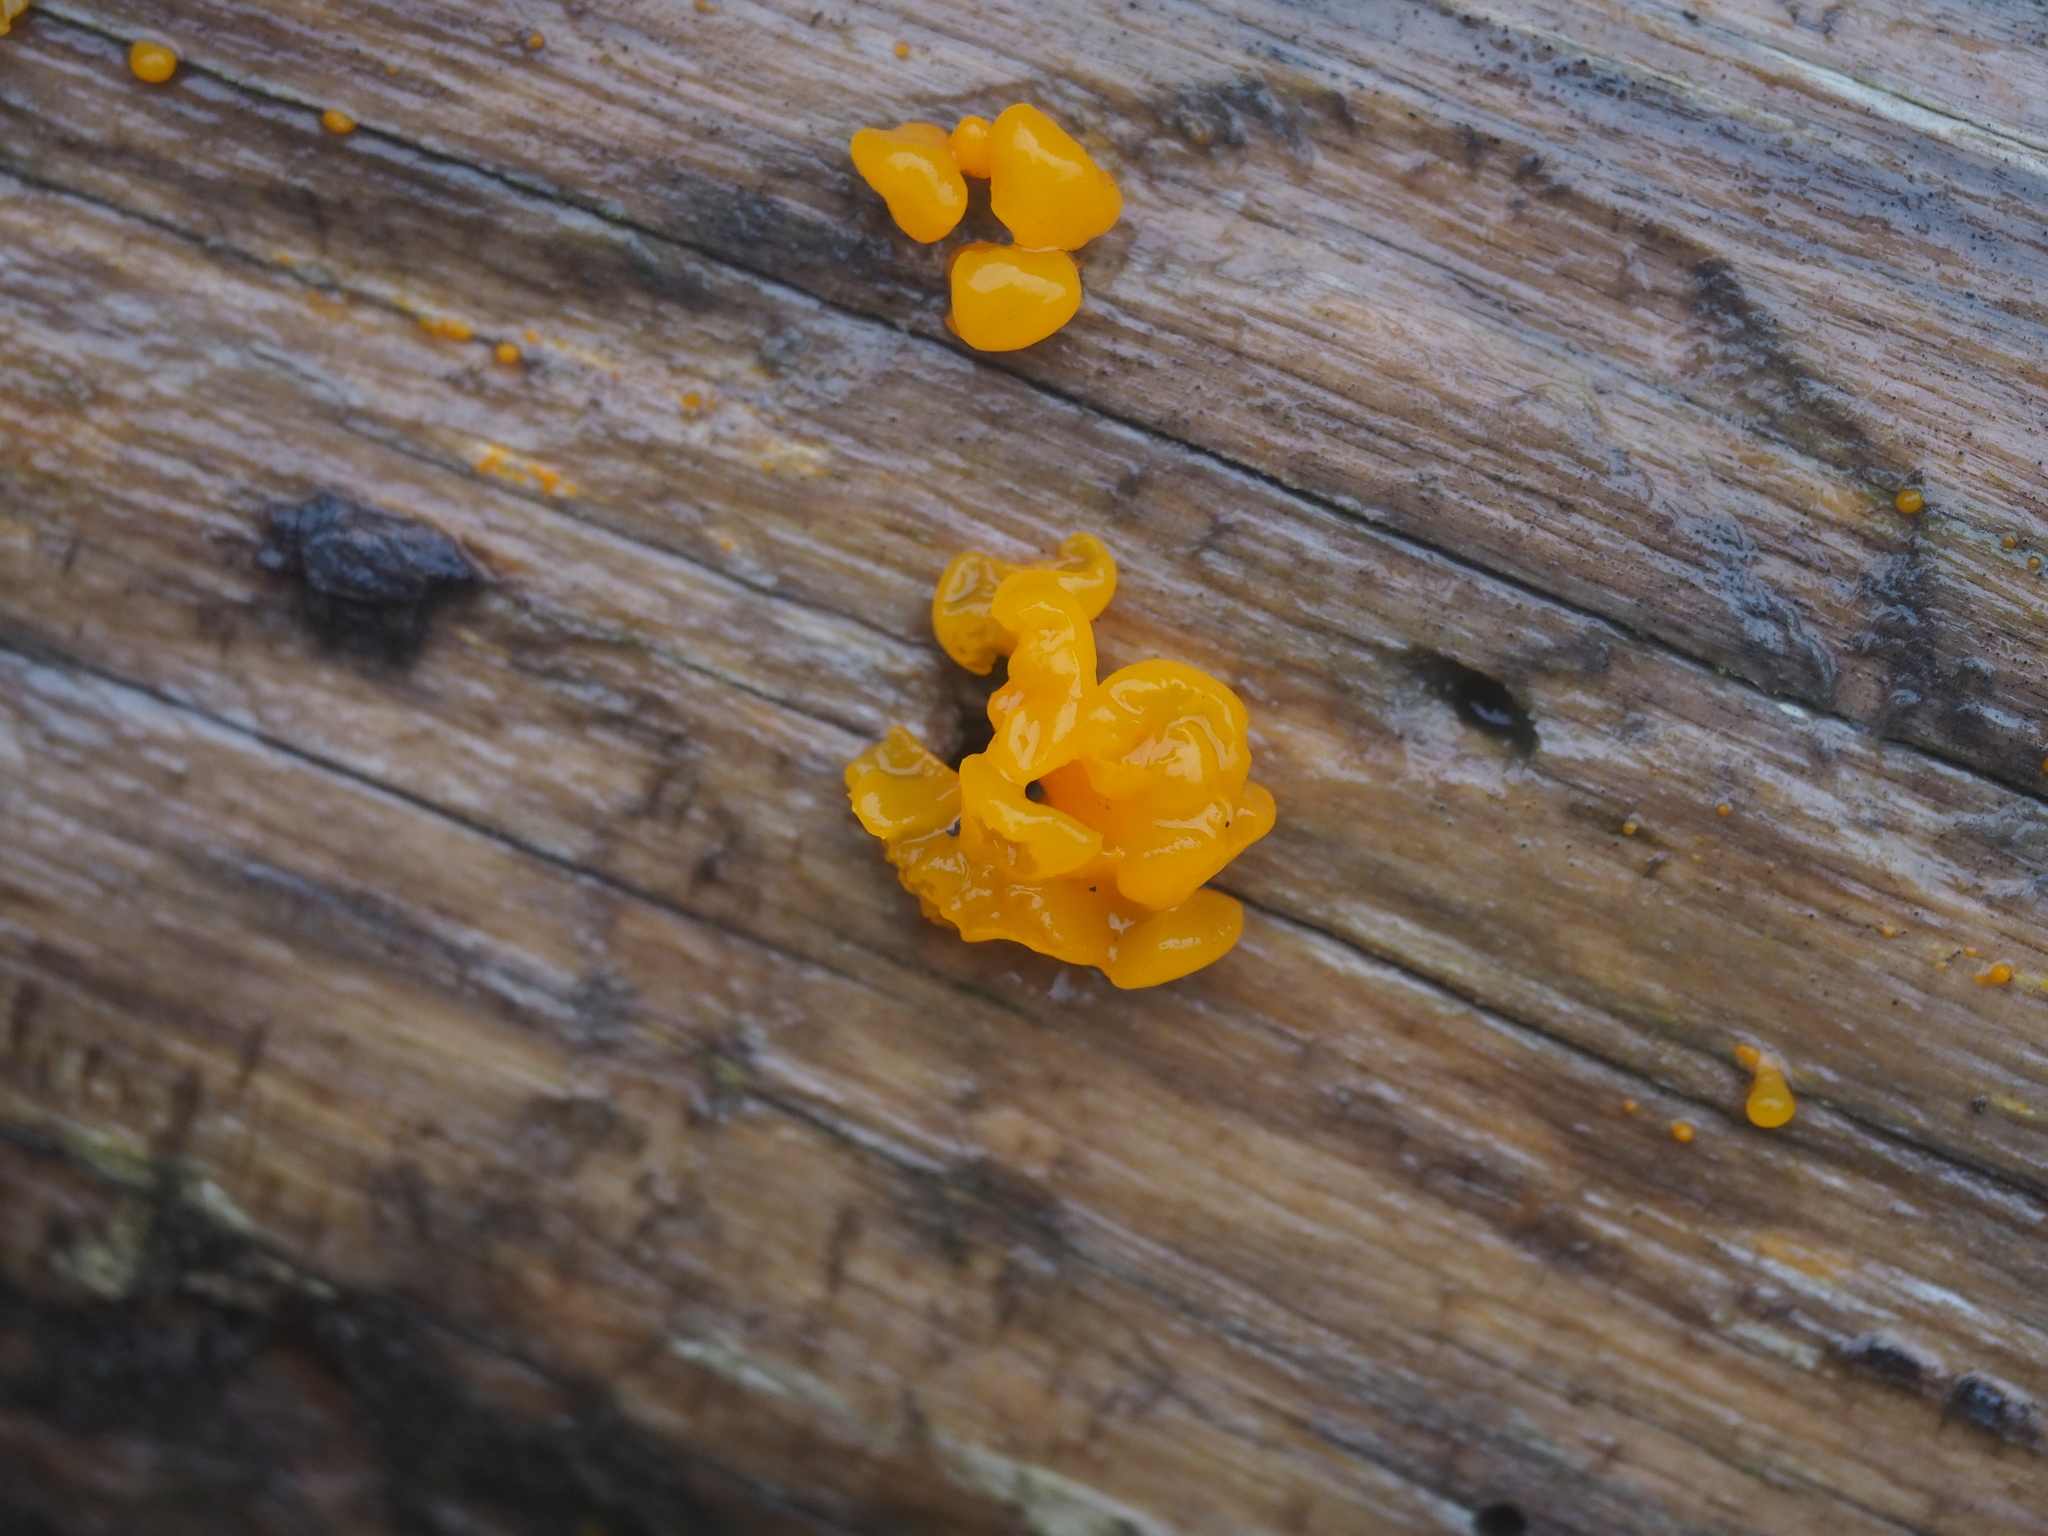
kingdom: Fungi
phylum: Basidiomycota
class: Dacrymycetes
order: Dacrymycetales
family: Dacrymycetaceae
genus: Dacrymyces
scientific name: Dacrymyces chrysospermus
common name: Orange jelly spot
